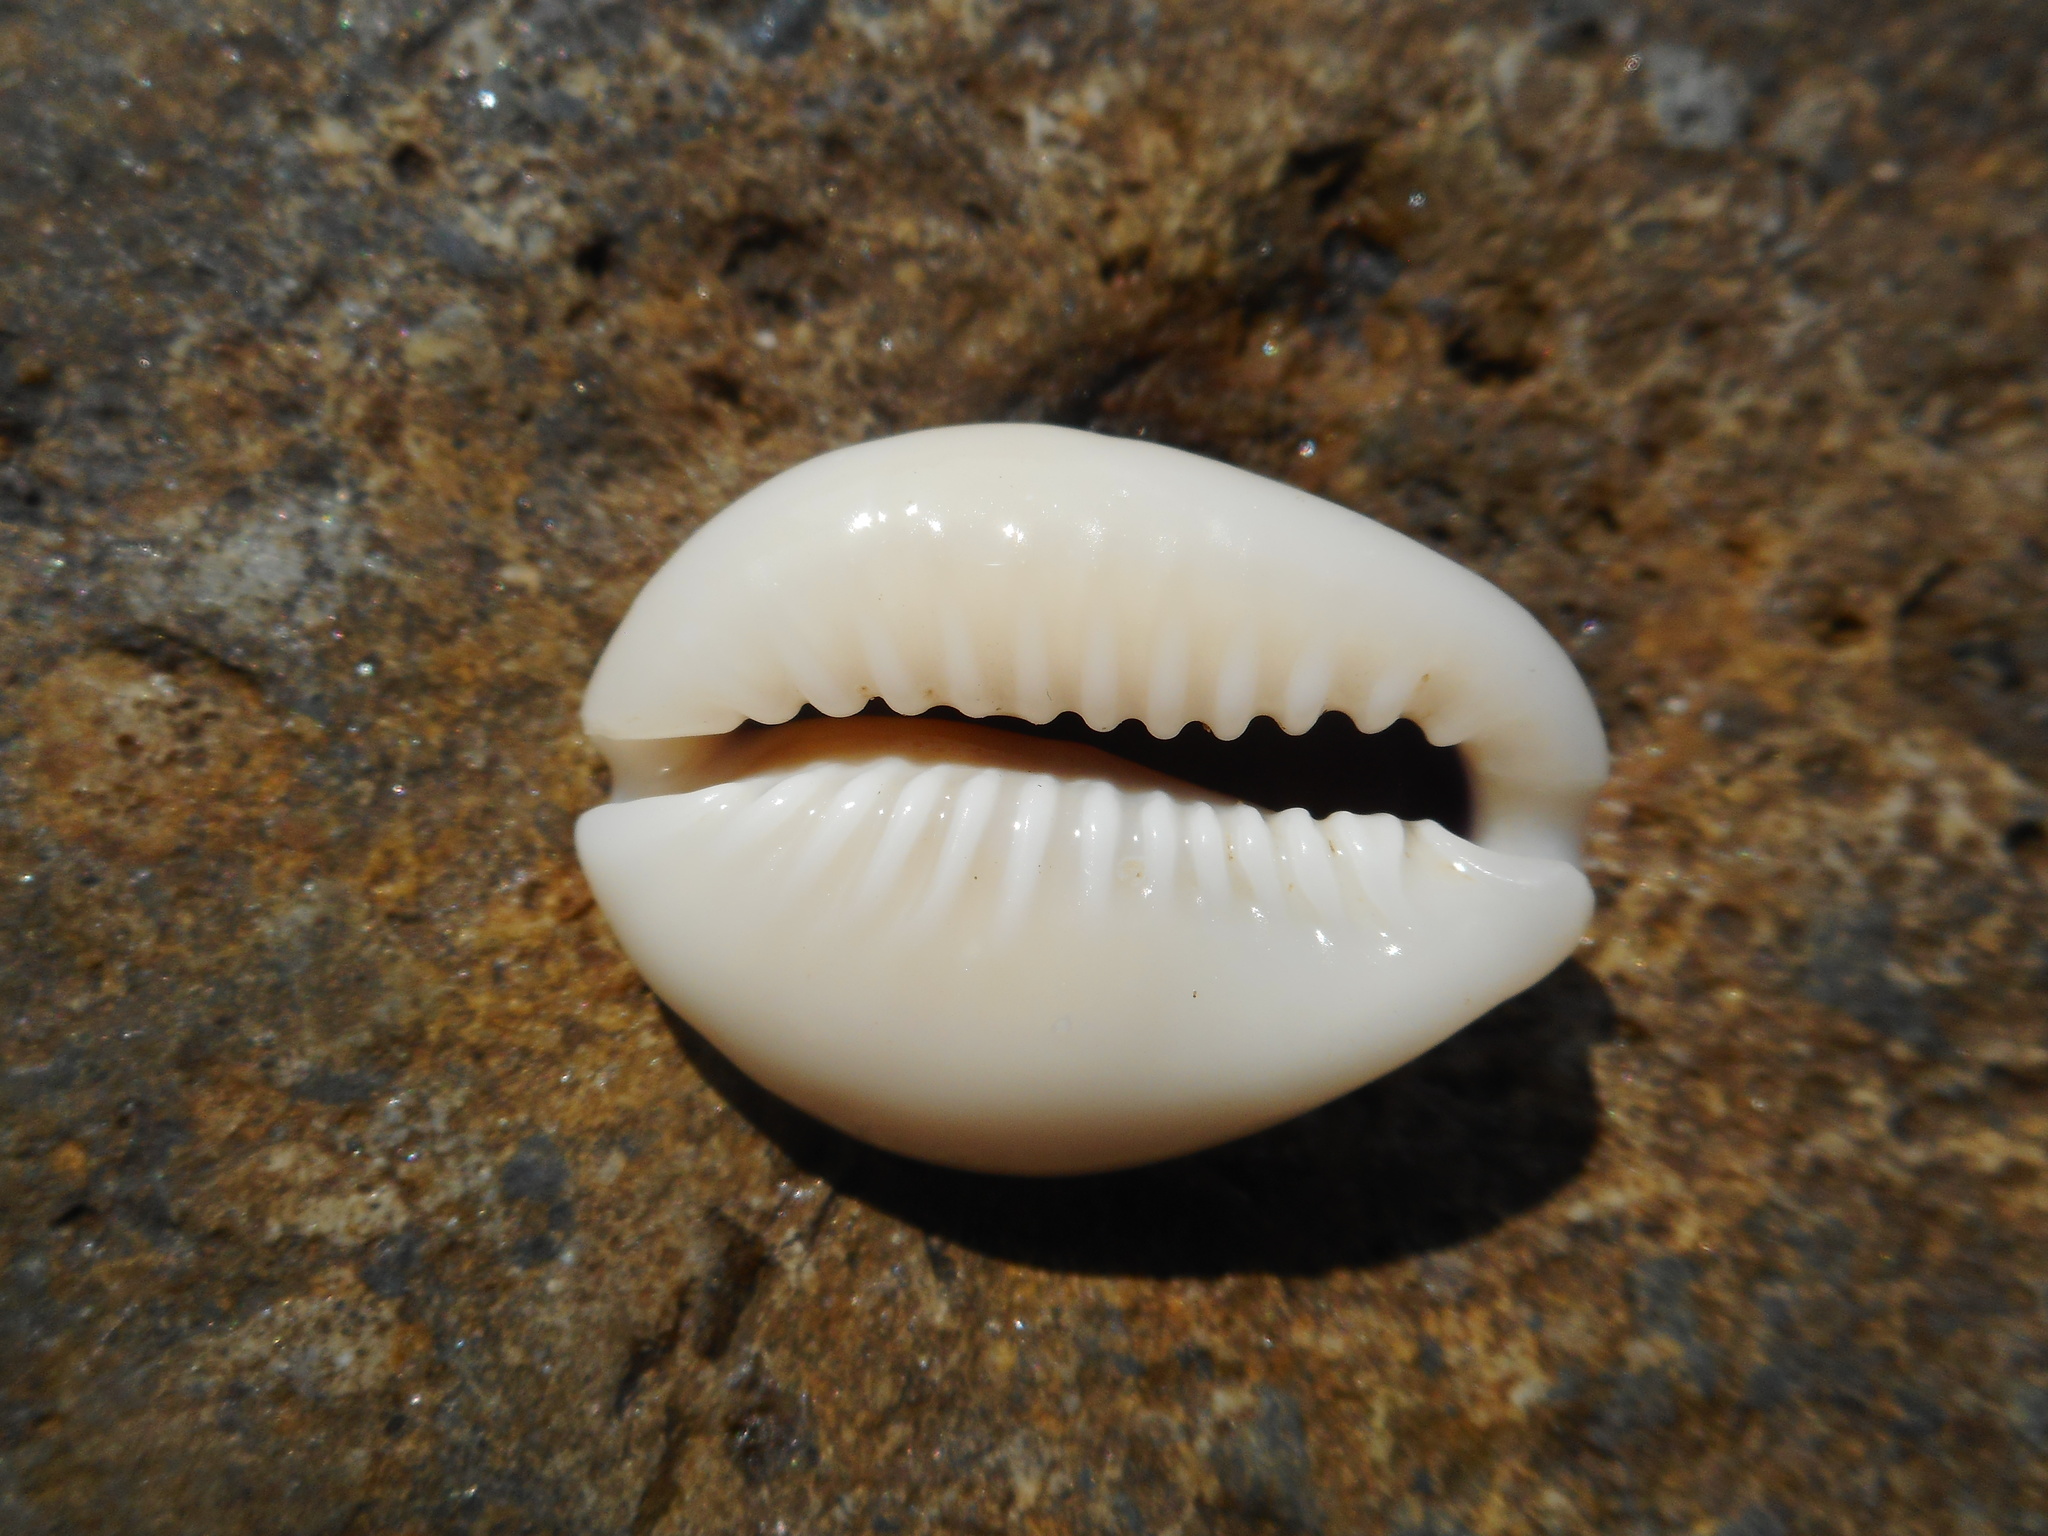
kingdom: Animalia
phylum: Mollusca
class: Gastropoda
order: Littorinimorpha
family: Cypraeidae
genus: Monetaria
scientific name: Monetaria annulus
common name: Ring cowrie
